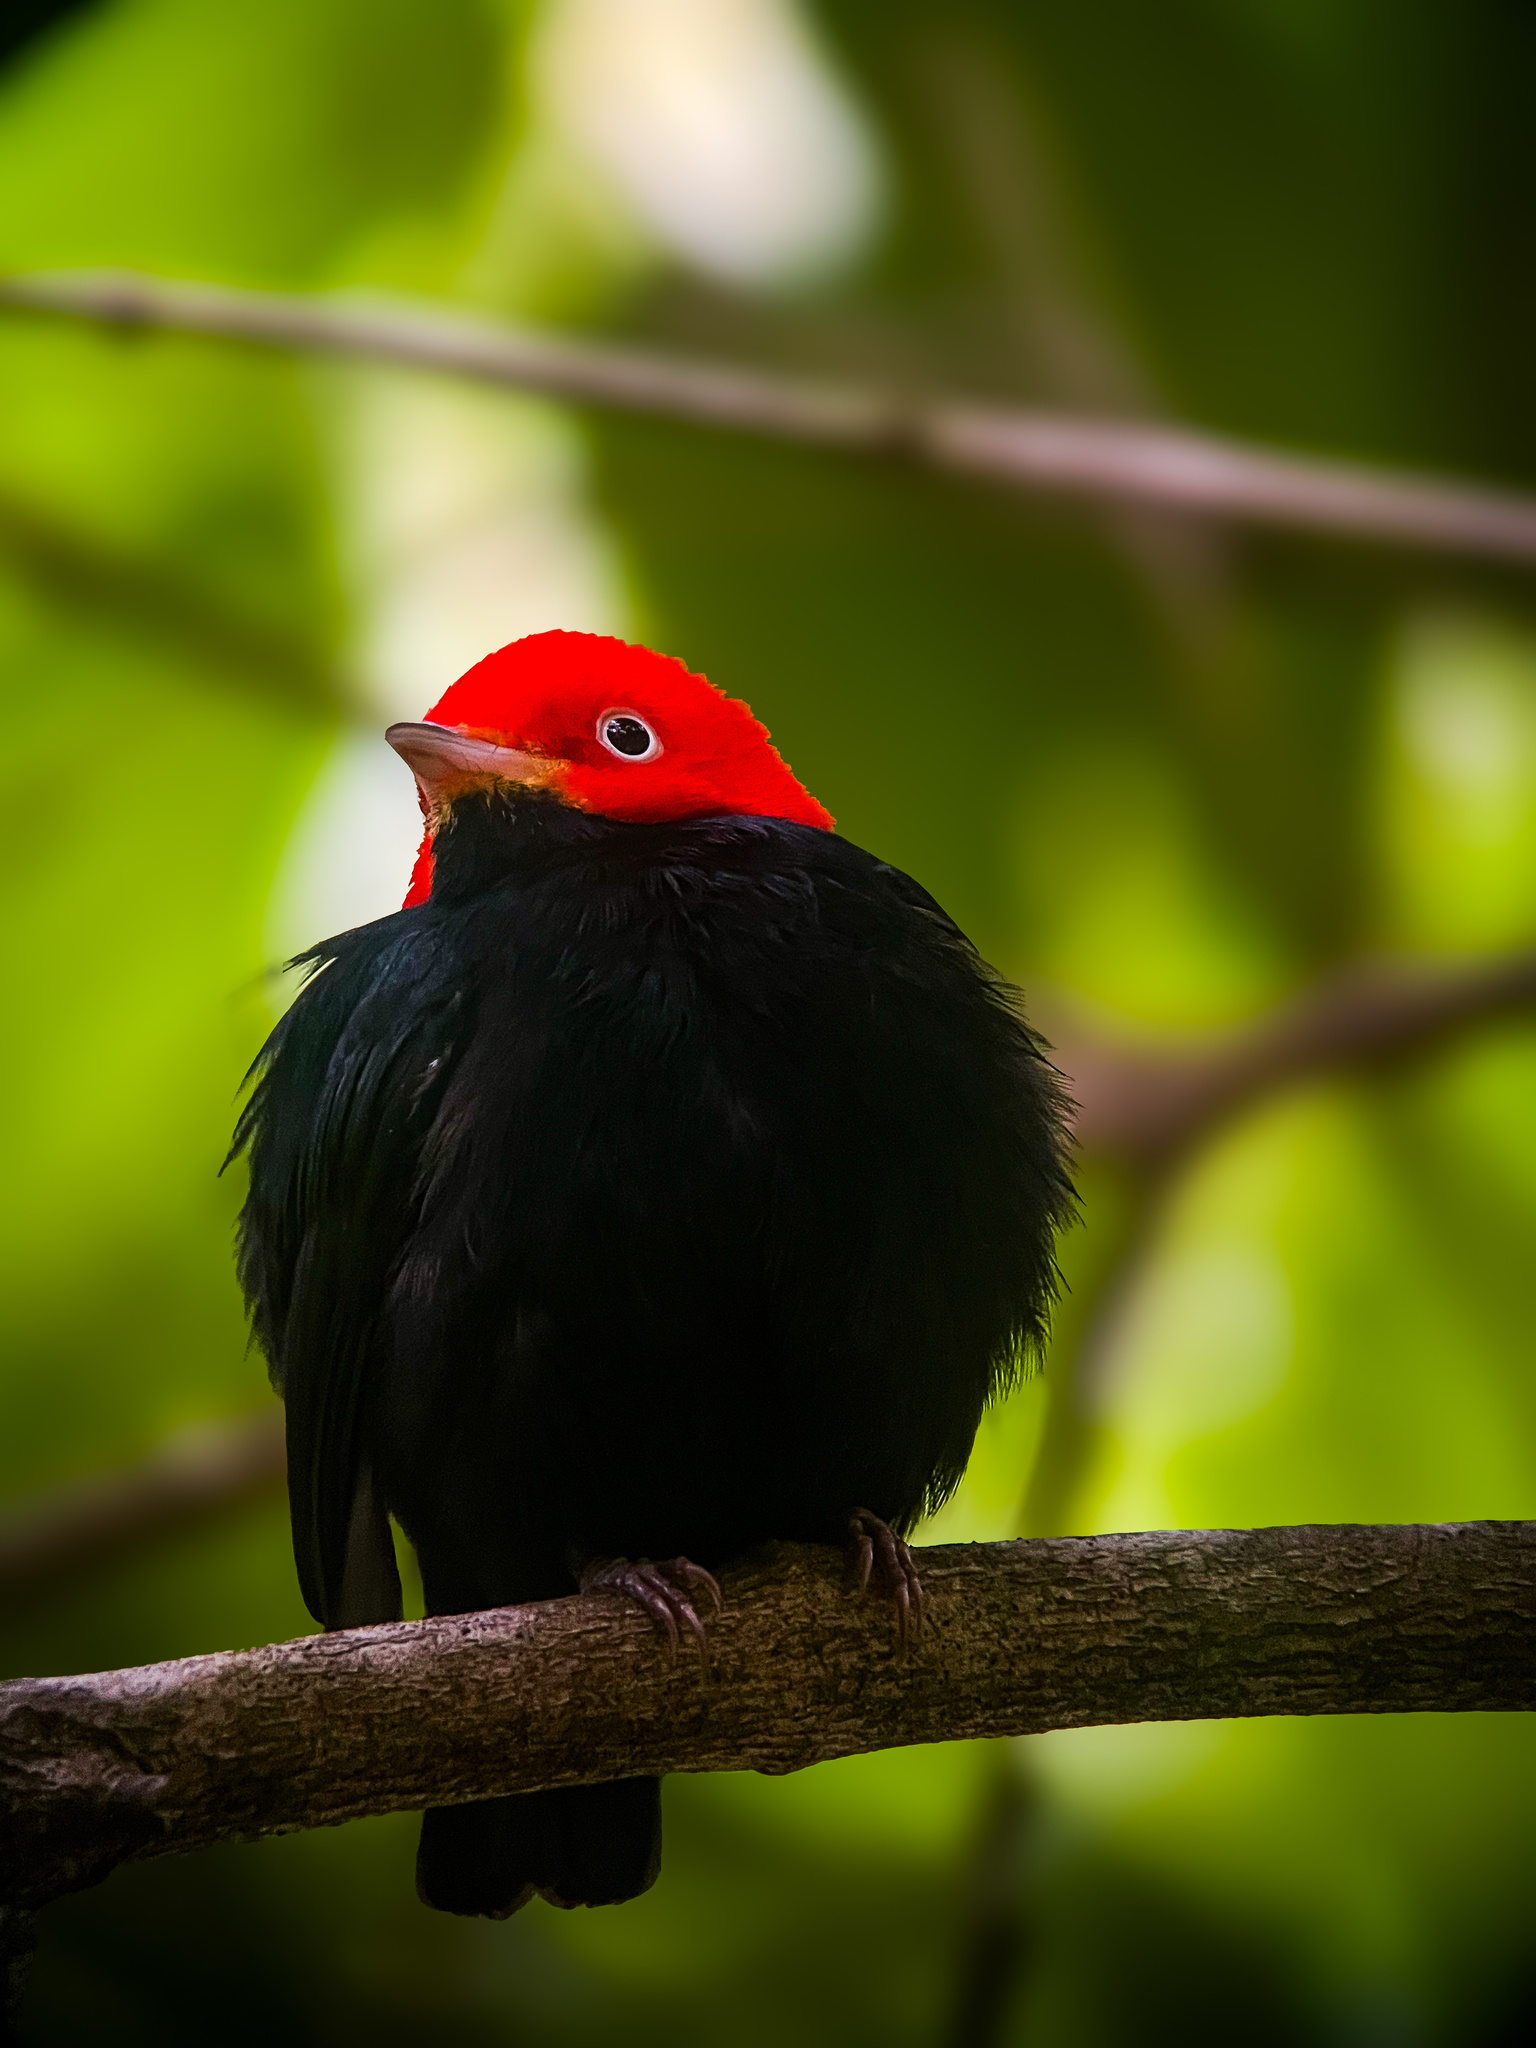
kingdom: Animalia
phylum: Chordata
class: Aves
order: Passeriformes
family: Pipridae
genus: Pipra
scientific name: Pipra mentalis
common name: Red-capped manakin
